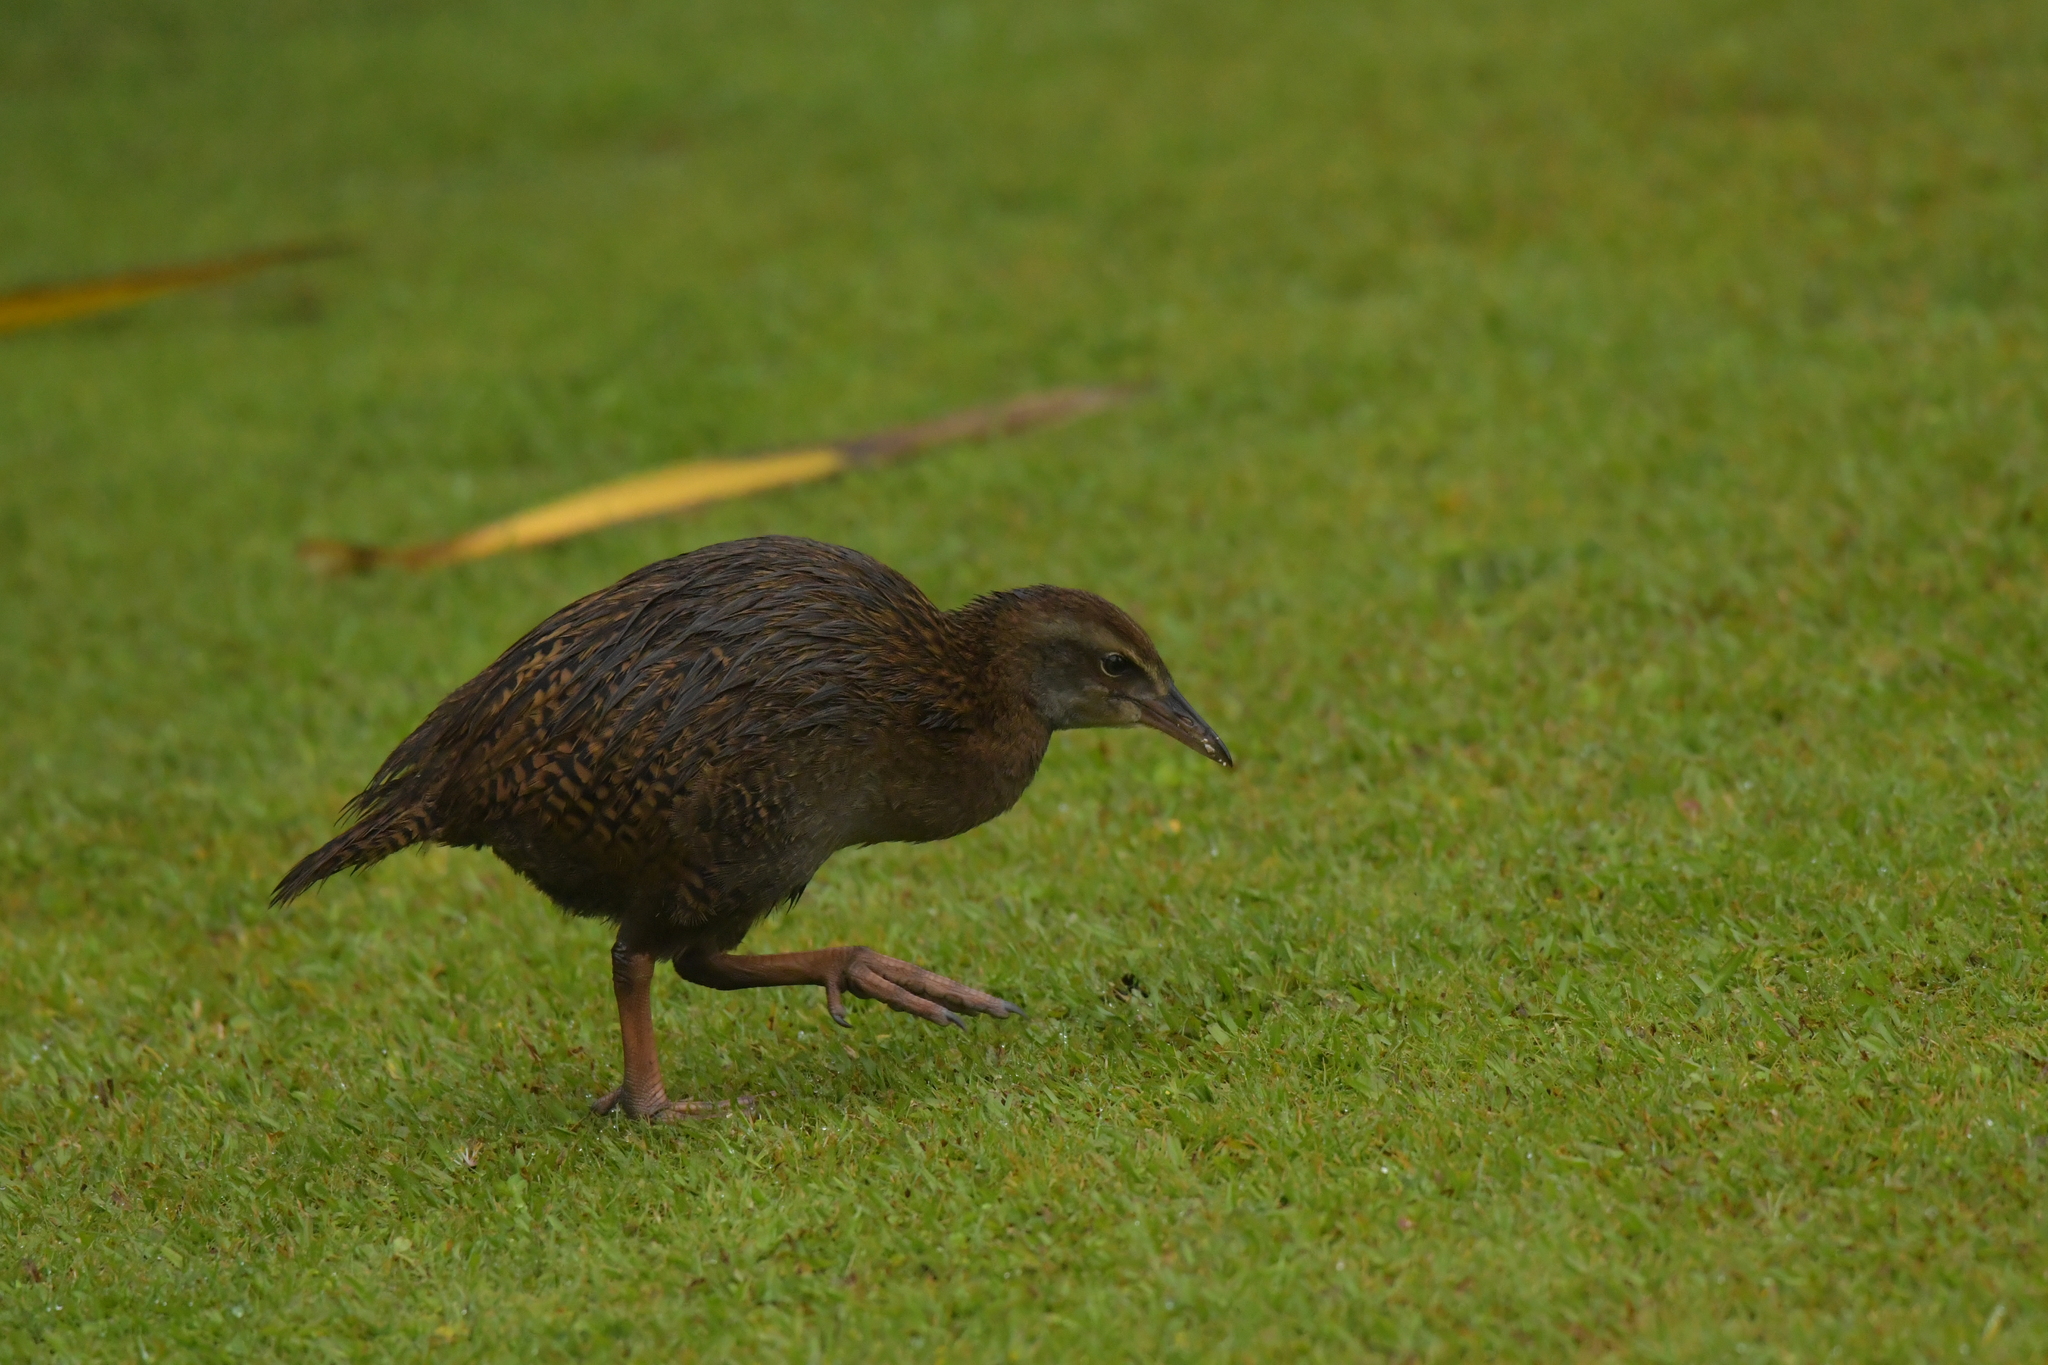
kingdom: Animalia
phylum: Chordata
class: Aves
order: Gruiformes
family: Rallidae
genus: Gallirallus
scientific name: Gallirallus australis
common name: Weka
